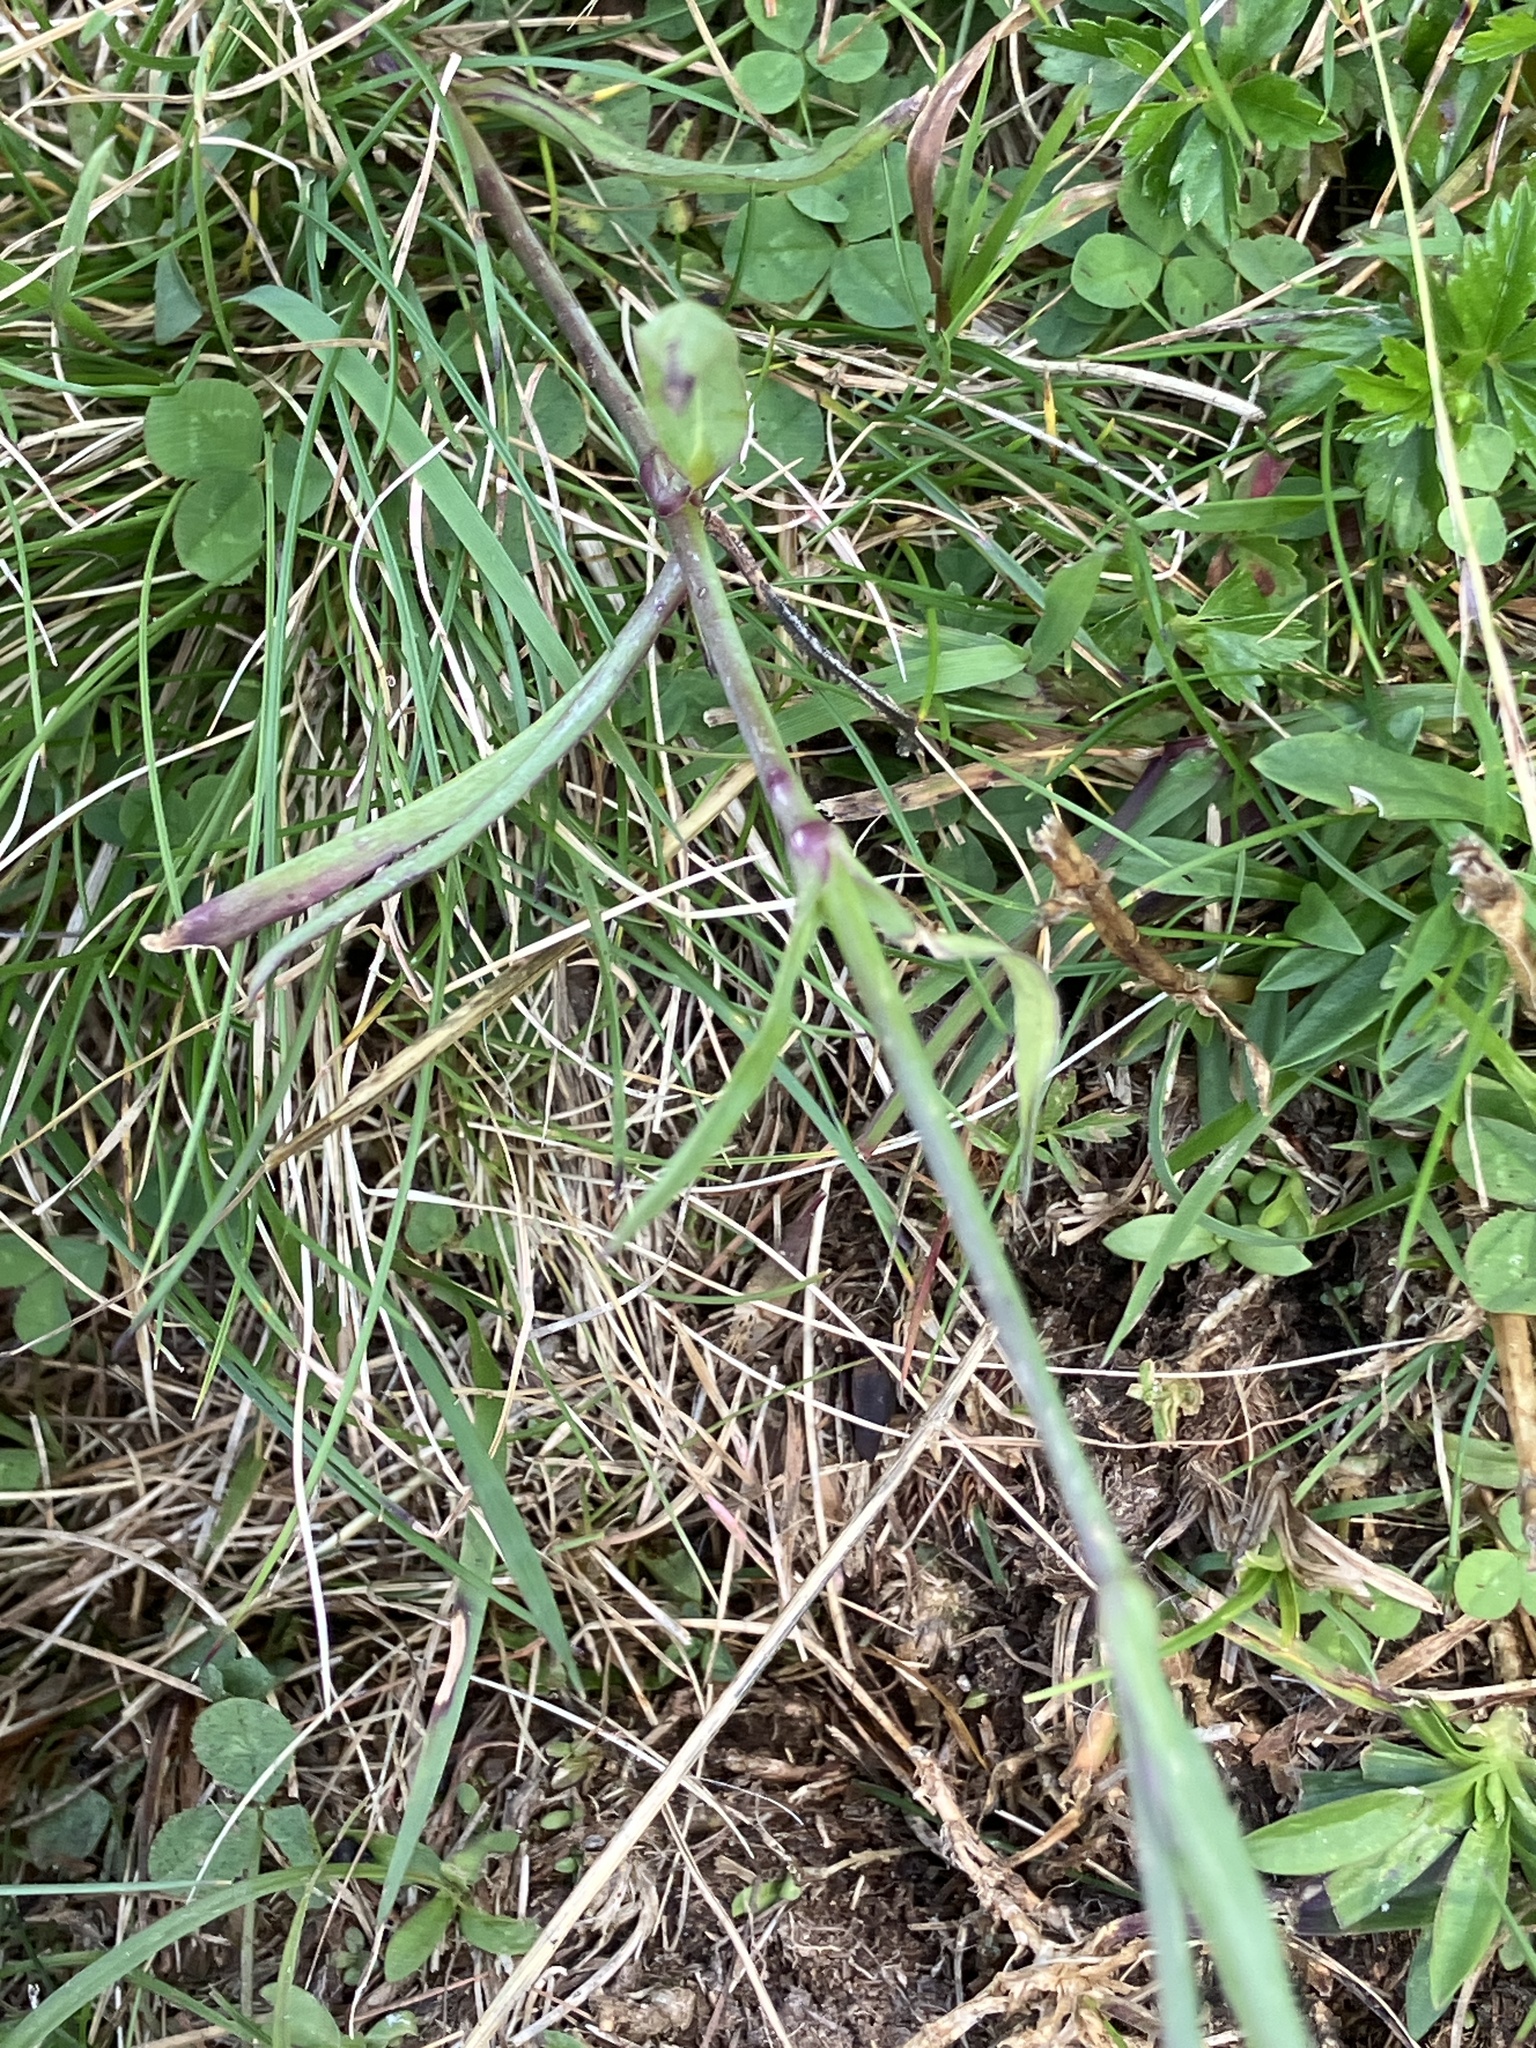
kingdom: Plantae
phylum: Tracheophyta
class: Magnoliopsida
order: Caryophyllales
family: Caryophyllaceae
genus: Dianthus
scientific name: Dianthus superbus
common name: Fringed pink
